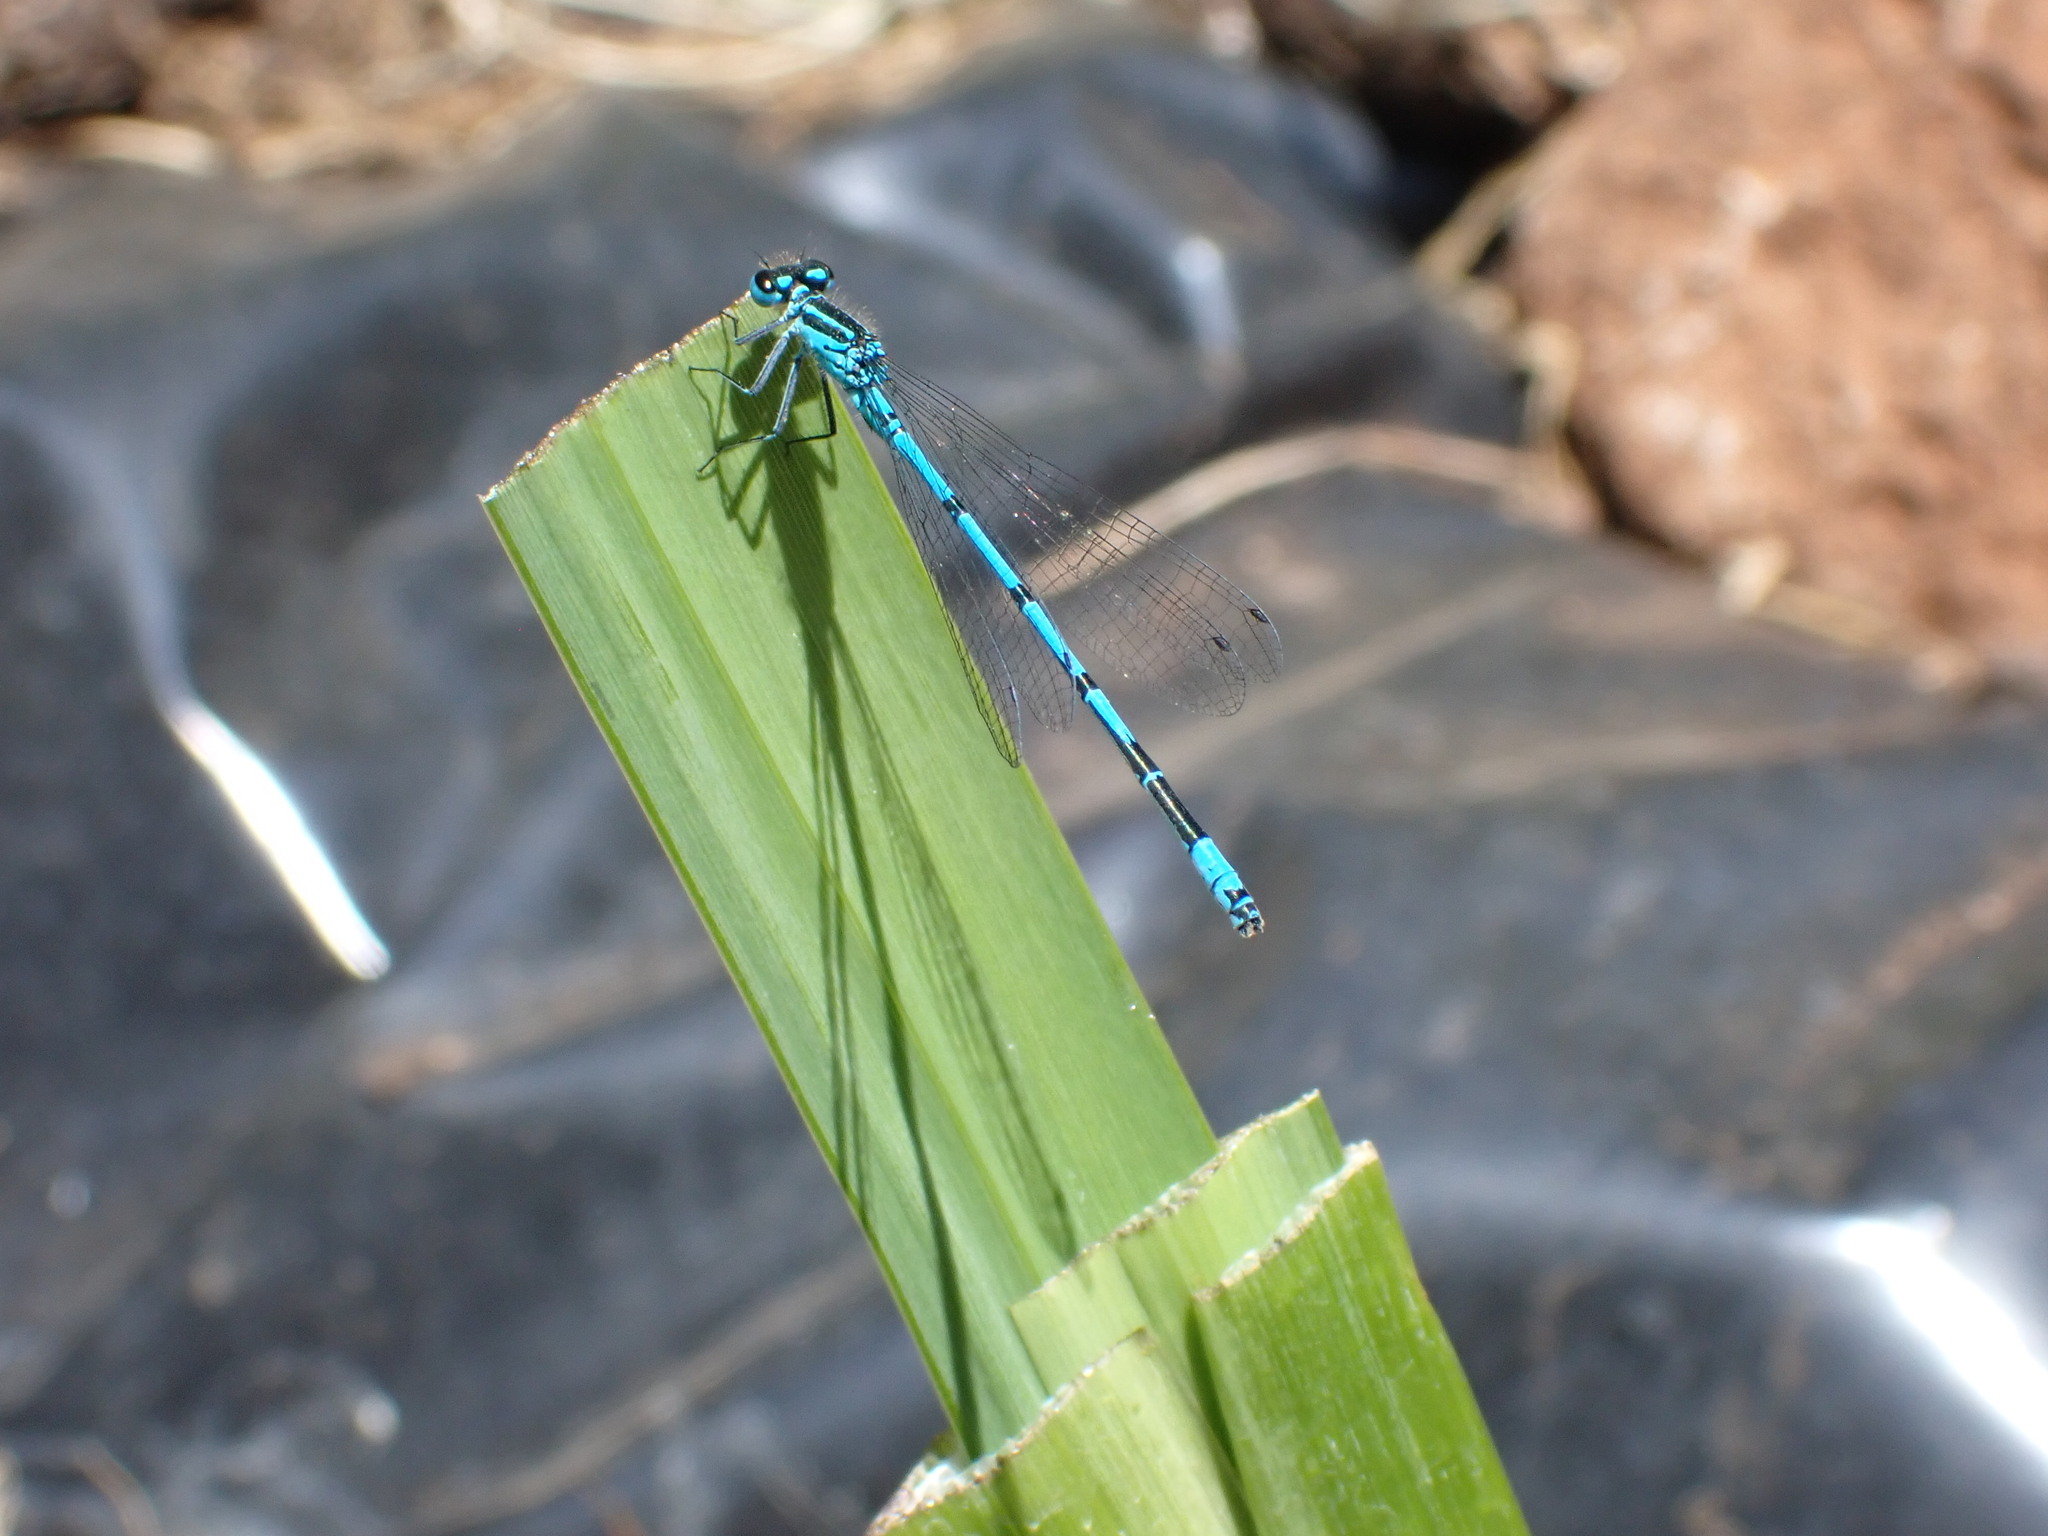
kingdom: Animalia
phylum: Arthropoda
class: Insecta
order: Odonata
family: Coenagrionidae
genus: Coenagrion
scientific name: Coenagrion puella
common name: Azure damselfly
